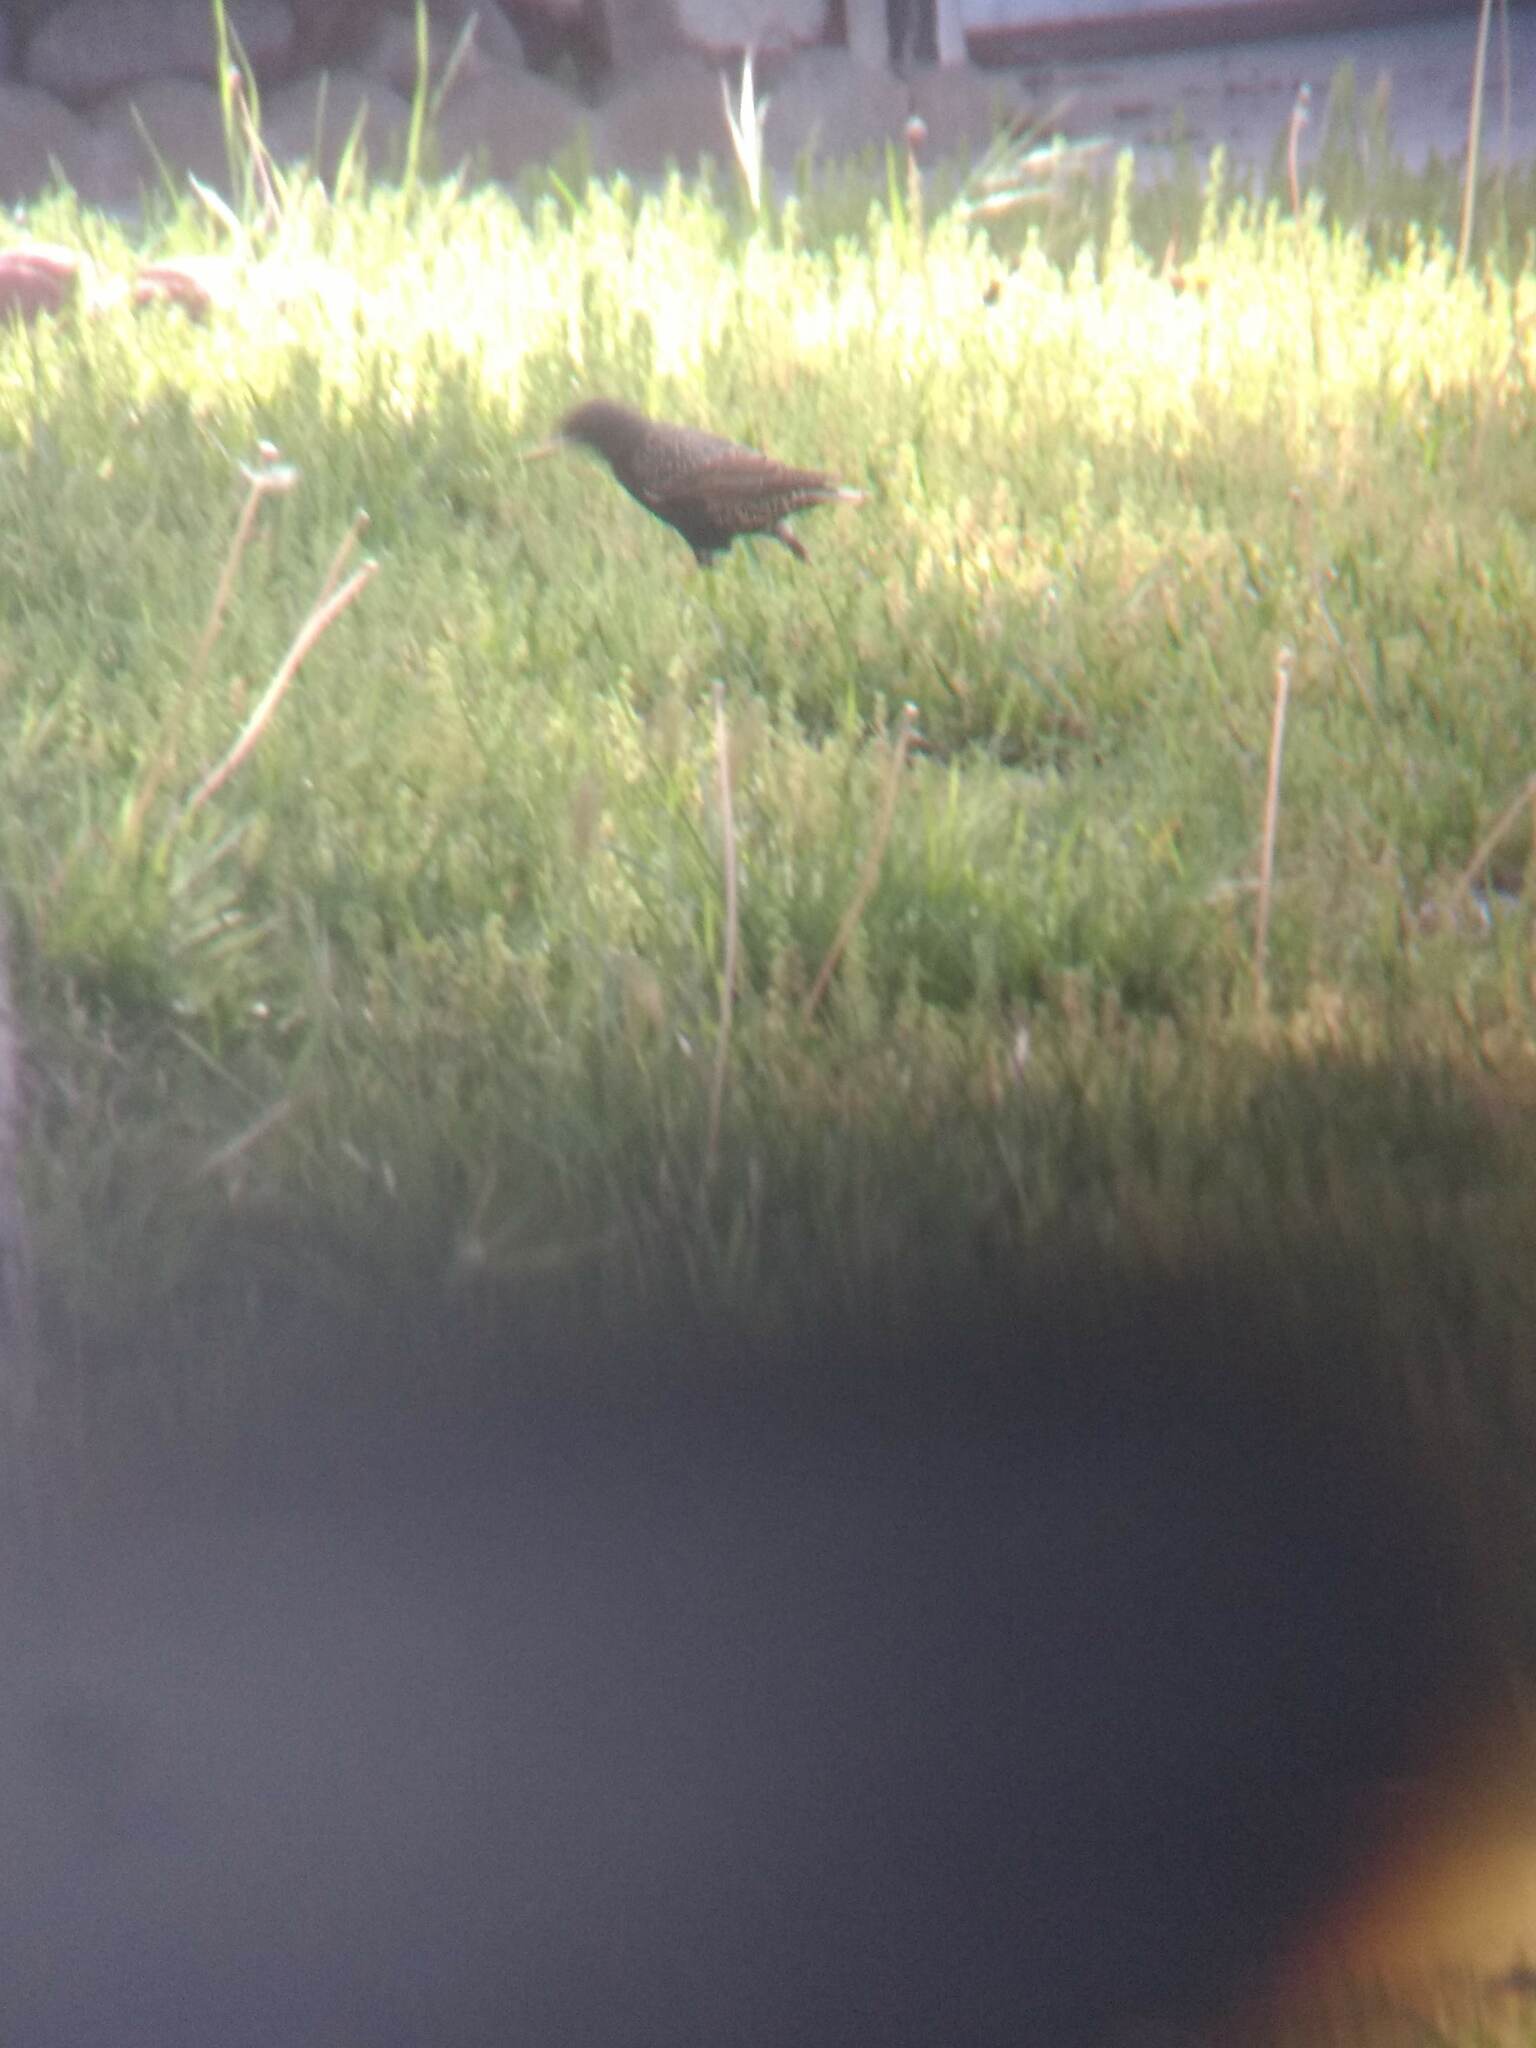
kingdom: Animalia
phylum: Chordata
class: Aves
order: Passeriformes
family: Sturnidae
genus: Sturnus
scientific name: Sturnus vulgaris
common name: Common starling
